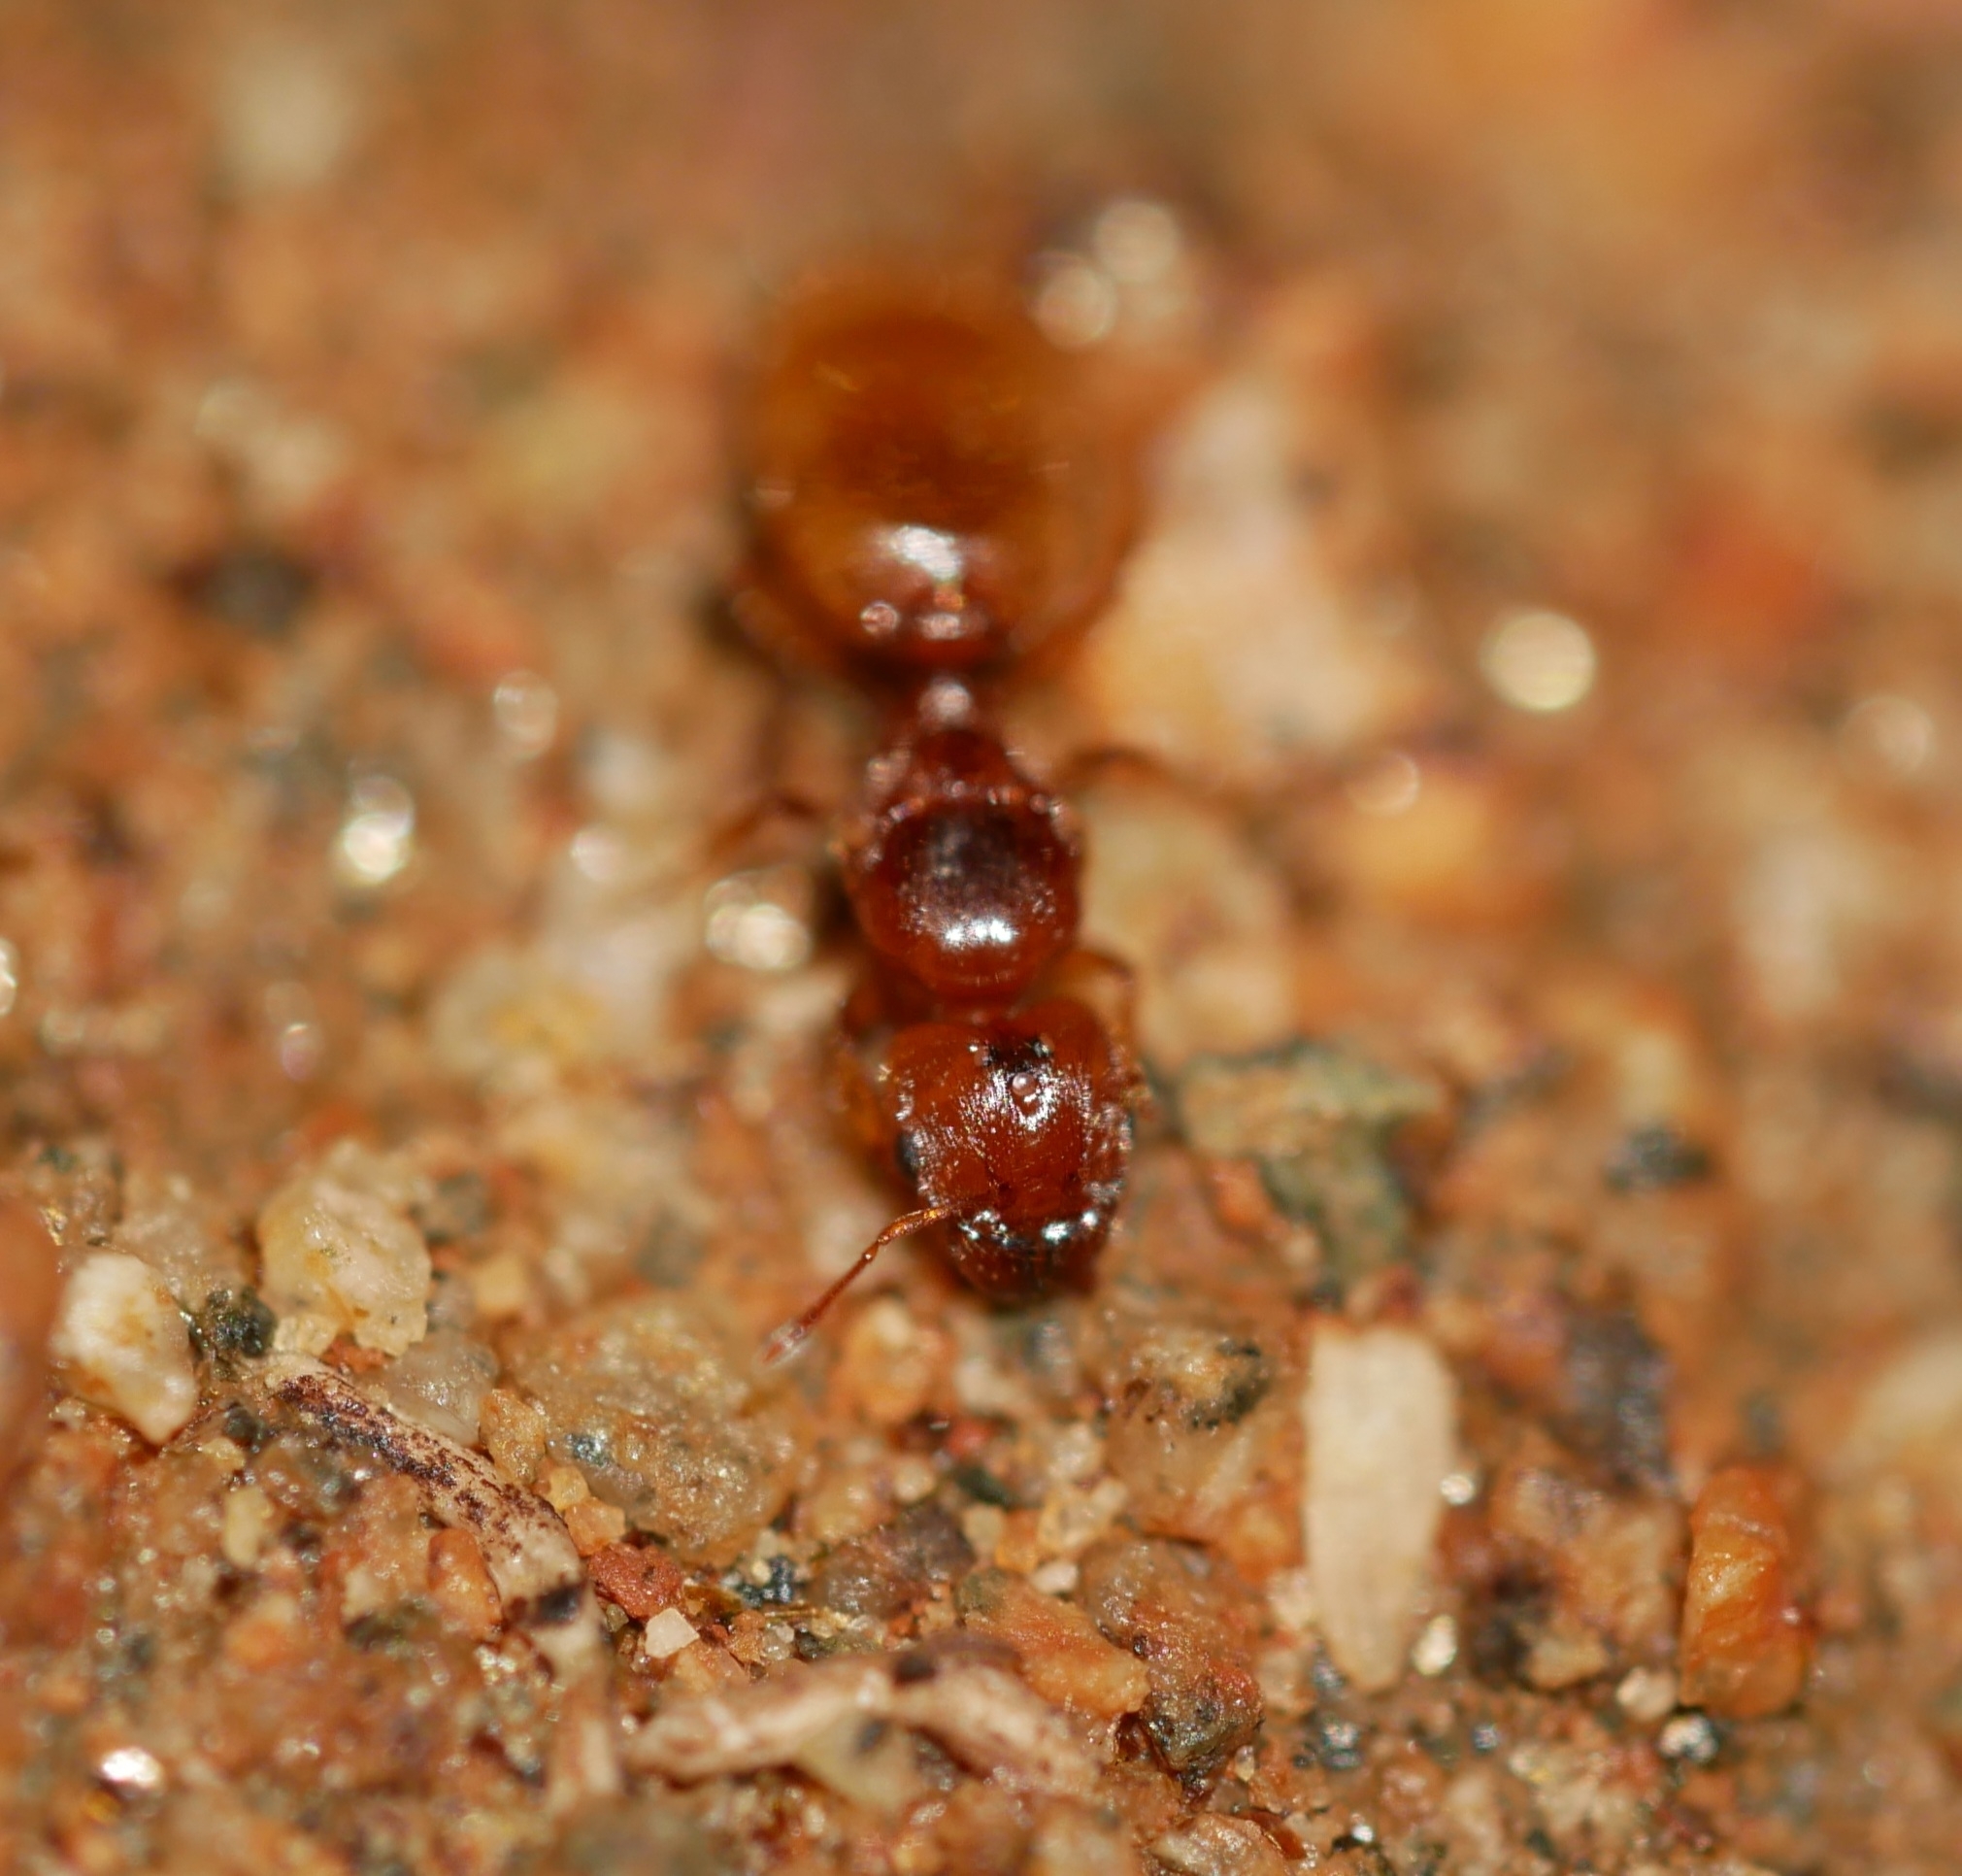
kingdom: Animalia
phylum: Arthropoda
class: Insecta
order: Hymenoptera
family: Formicidae
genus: Pheidole
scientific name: Pheidole cerebrosior
